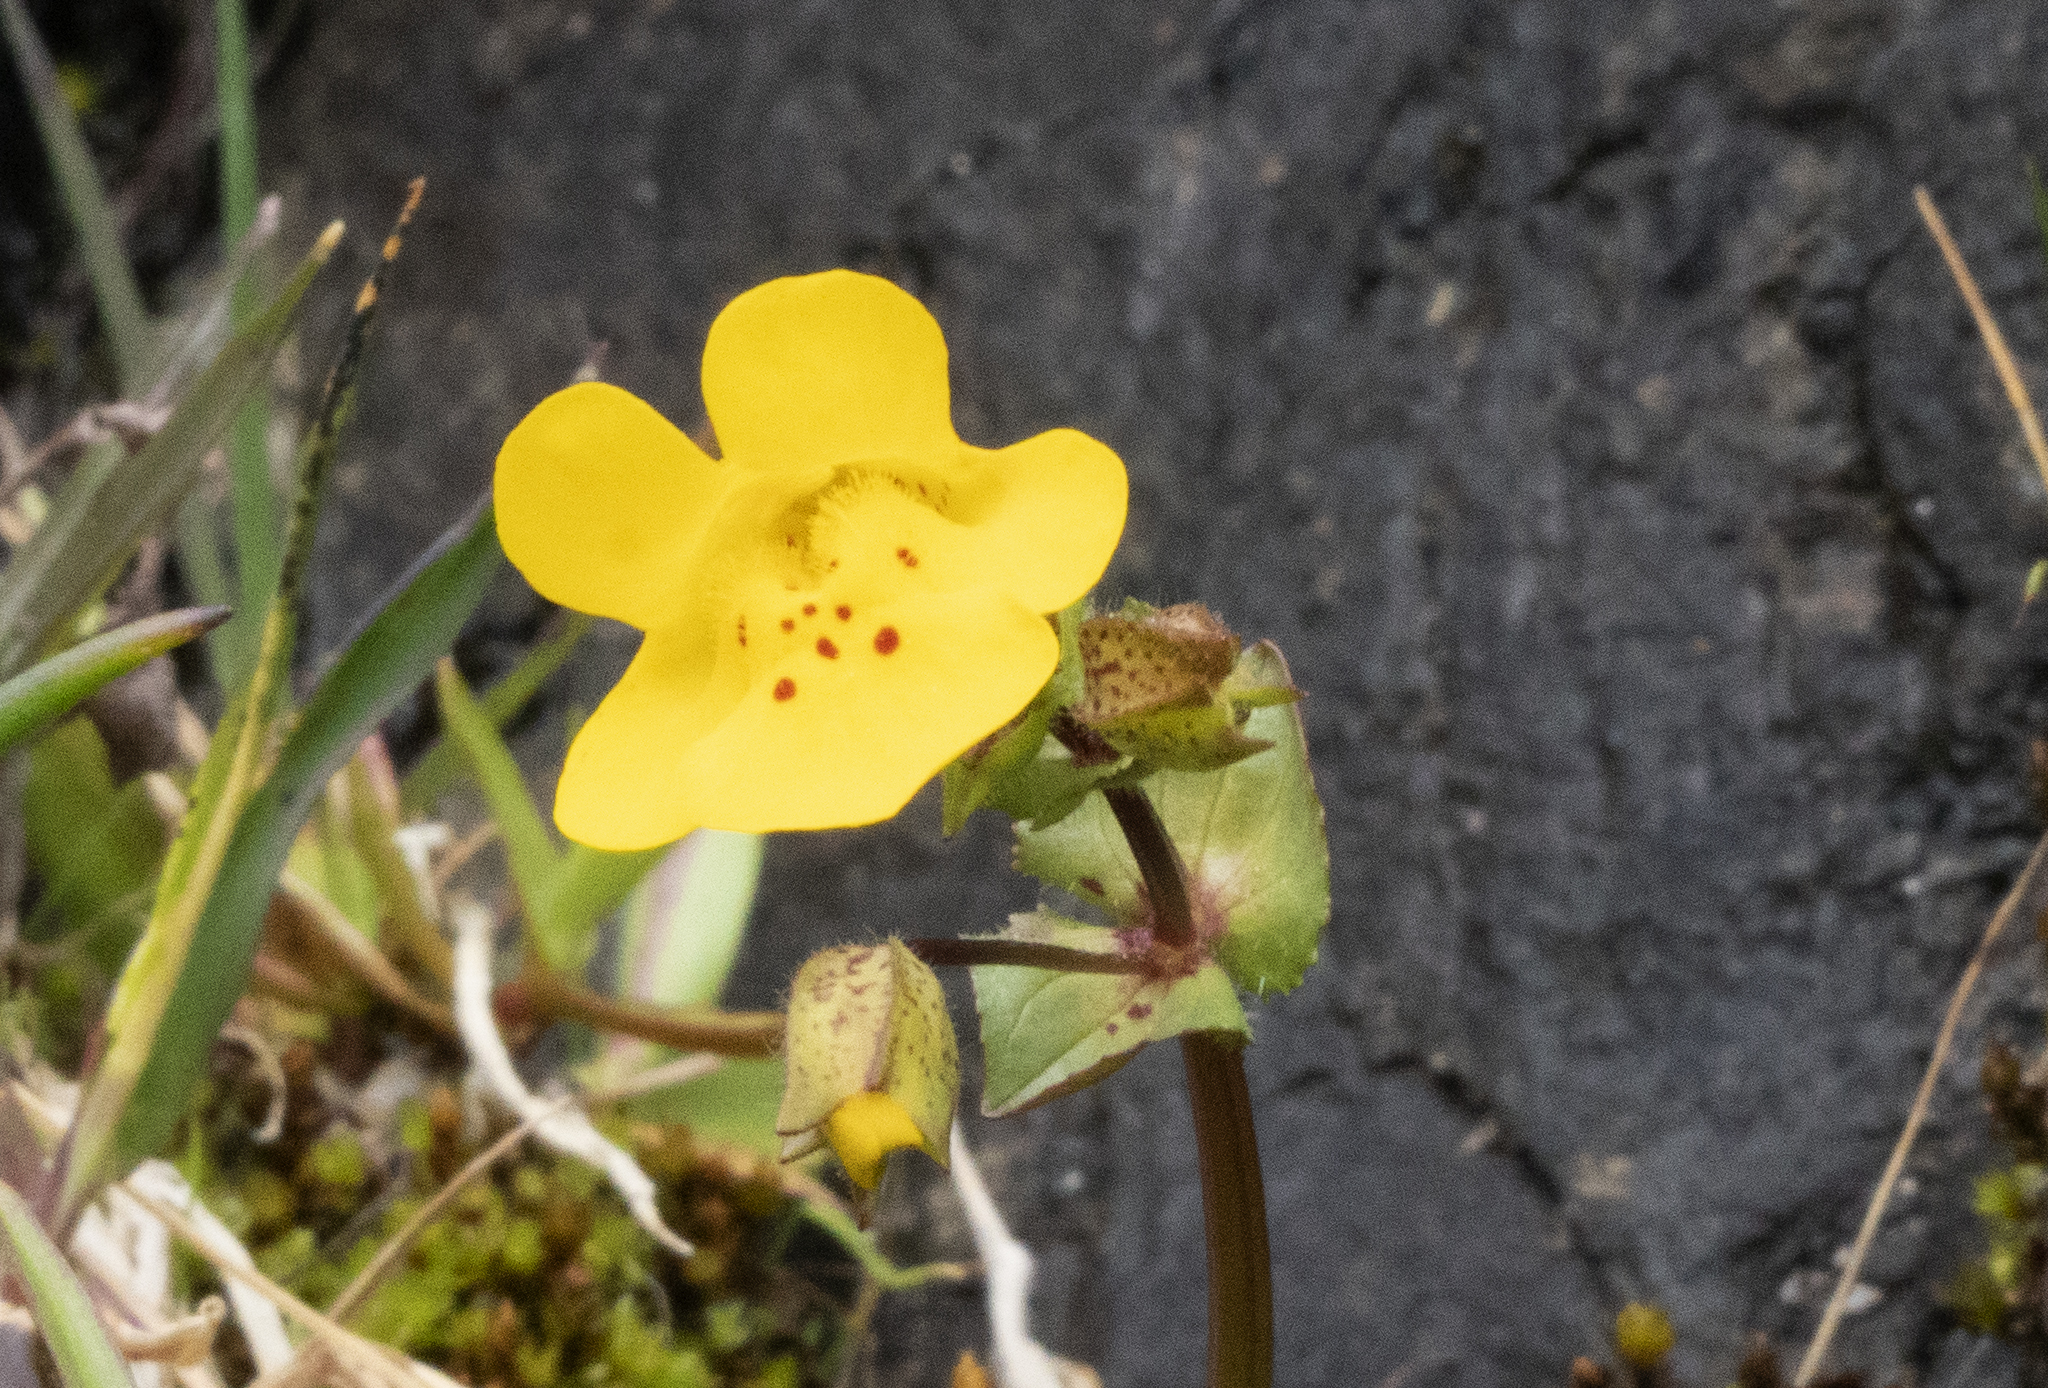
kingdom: Plantae
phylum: Tracheophyta
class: Magnoliopsida
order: Lamiales
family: Phrymaceae
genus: Erythranthe
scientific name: Erythranthe guttata
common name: Monkeyflower
